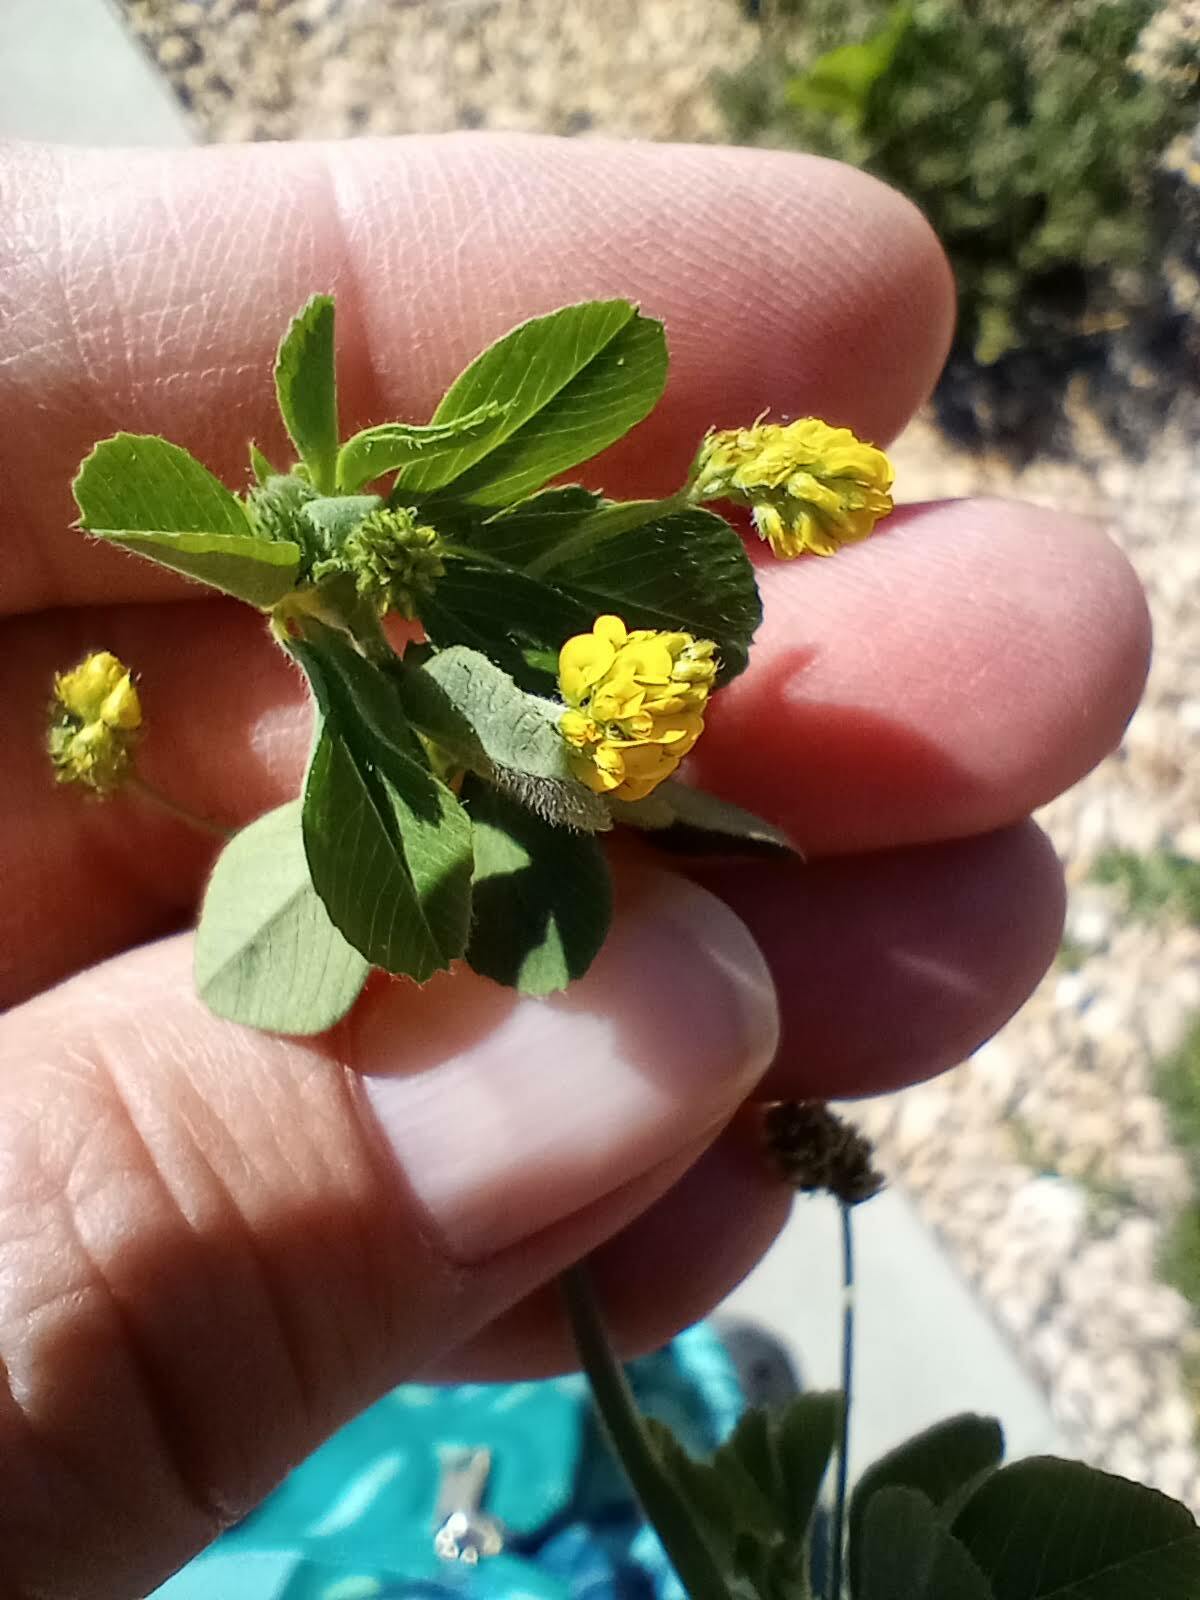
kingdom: Plantae
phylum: Tracheophyta
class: Magnoliopsida
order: Fabales
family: Fabaceae
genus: Medicago
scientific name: Medicago lupulina
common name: Black medick
